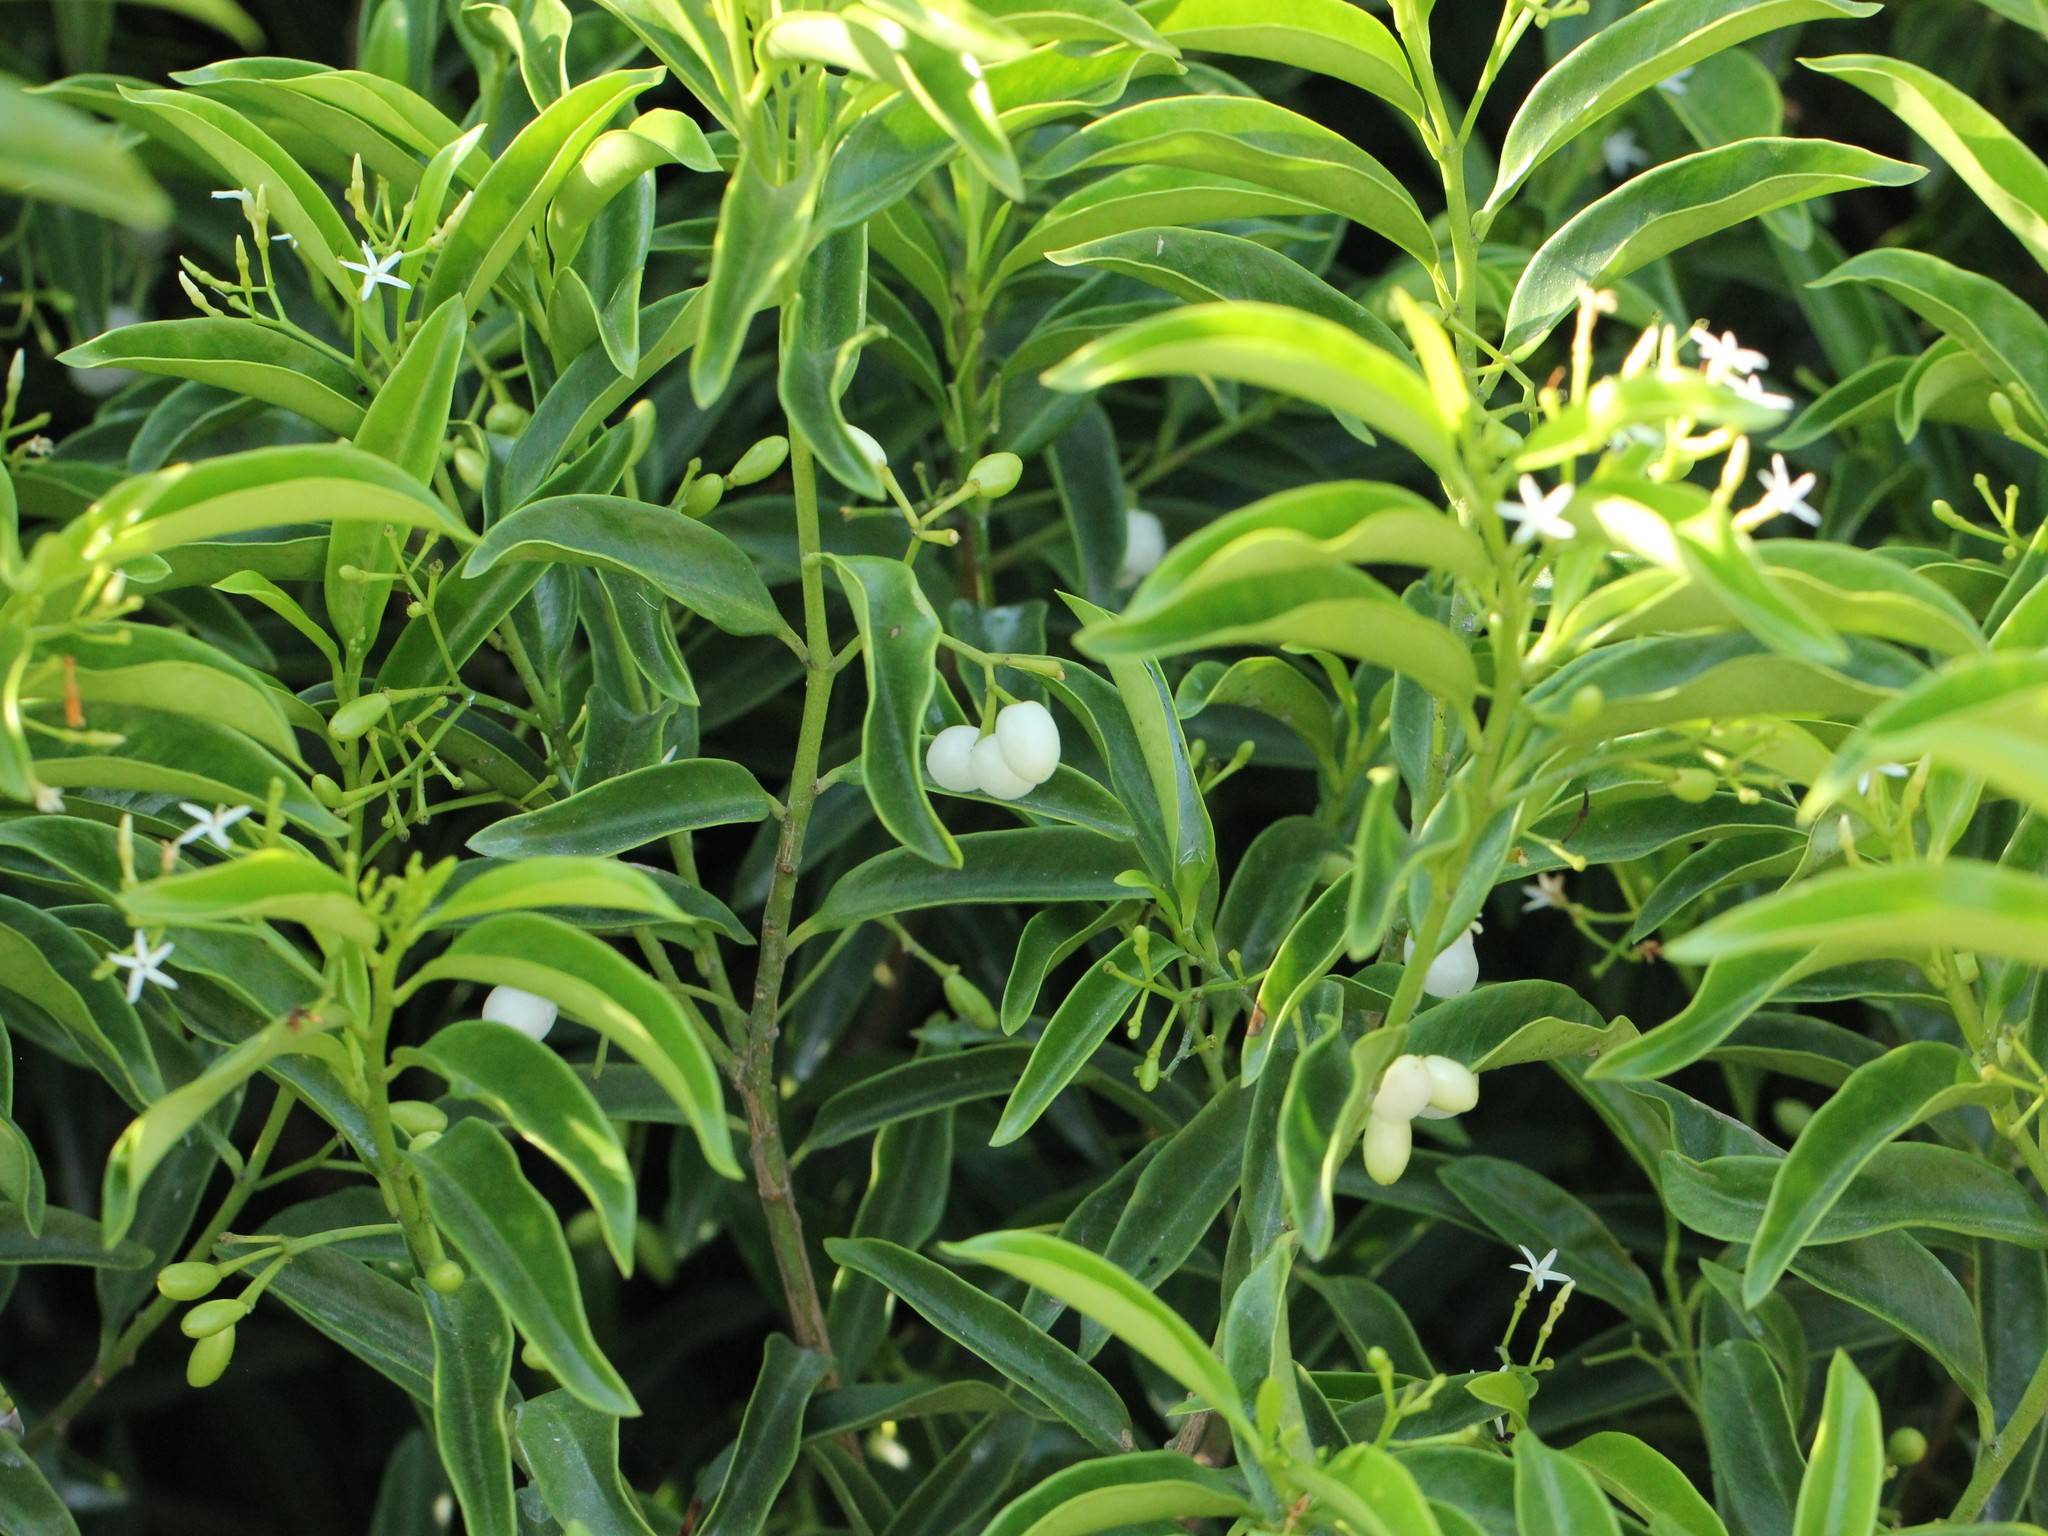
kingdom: Plantae
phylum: Tracheophyta
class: Magnoliopsida
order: Gentianales
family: Apocynaceae
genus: Vallesia
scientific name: Vallesia antillana
